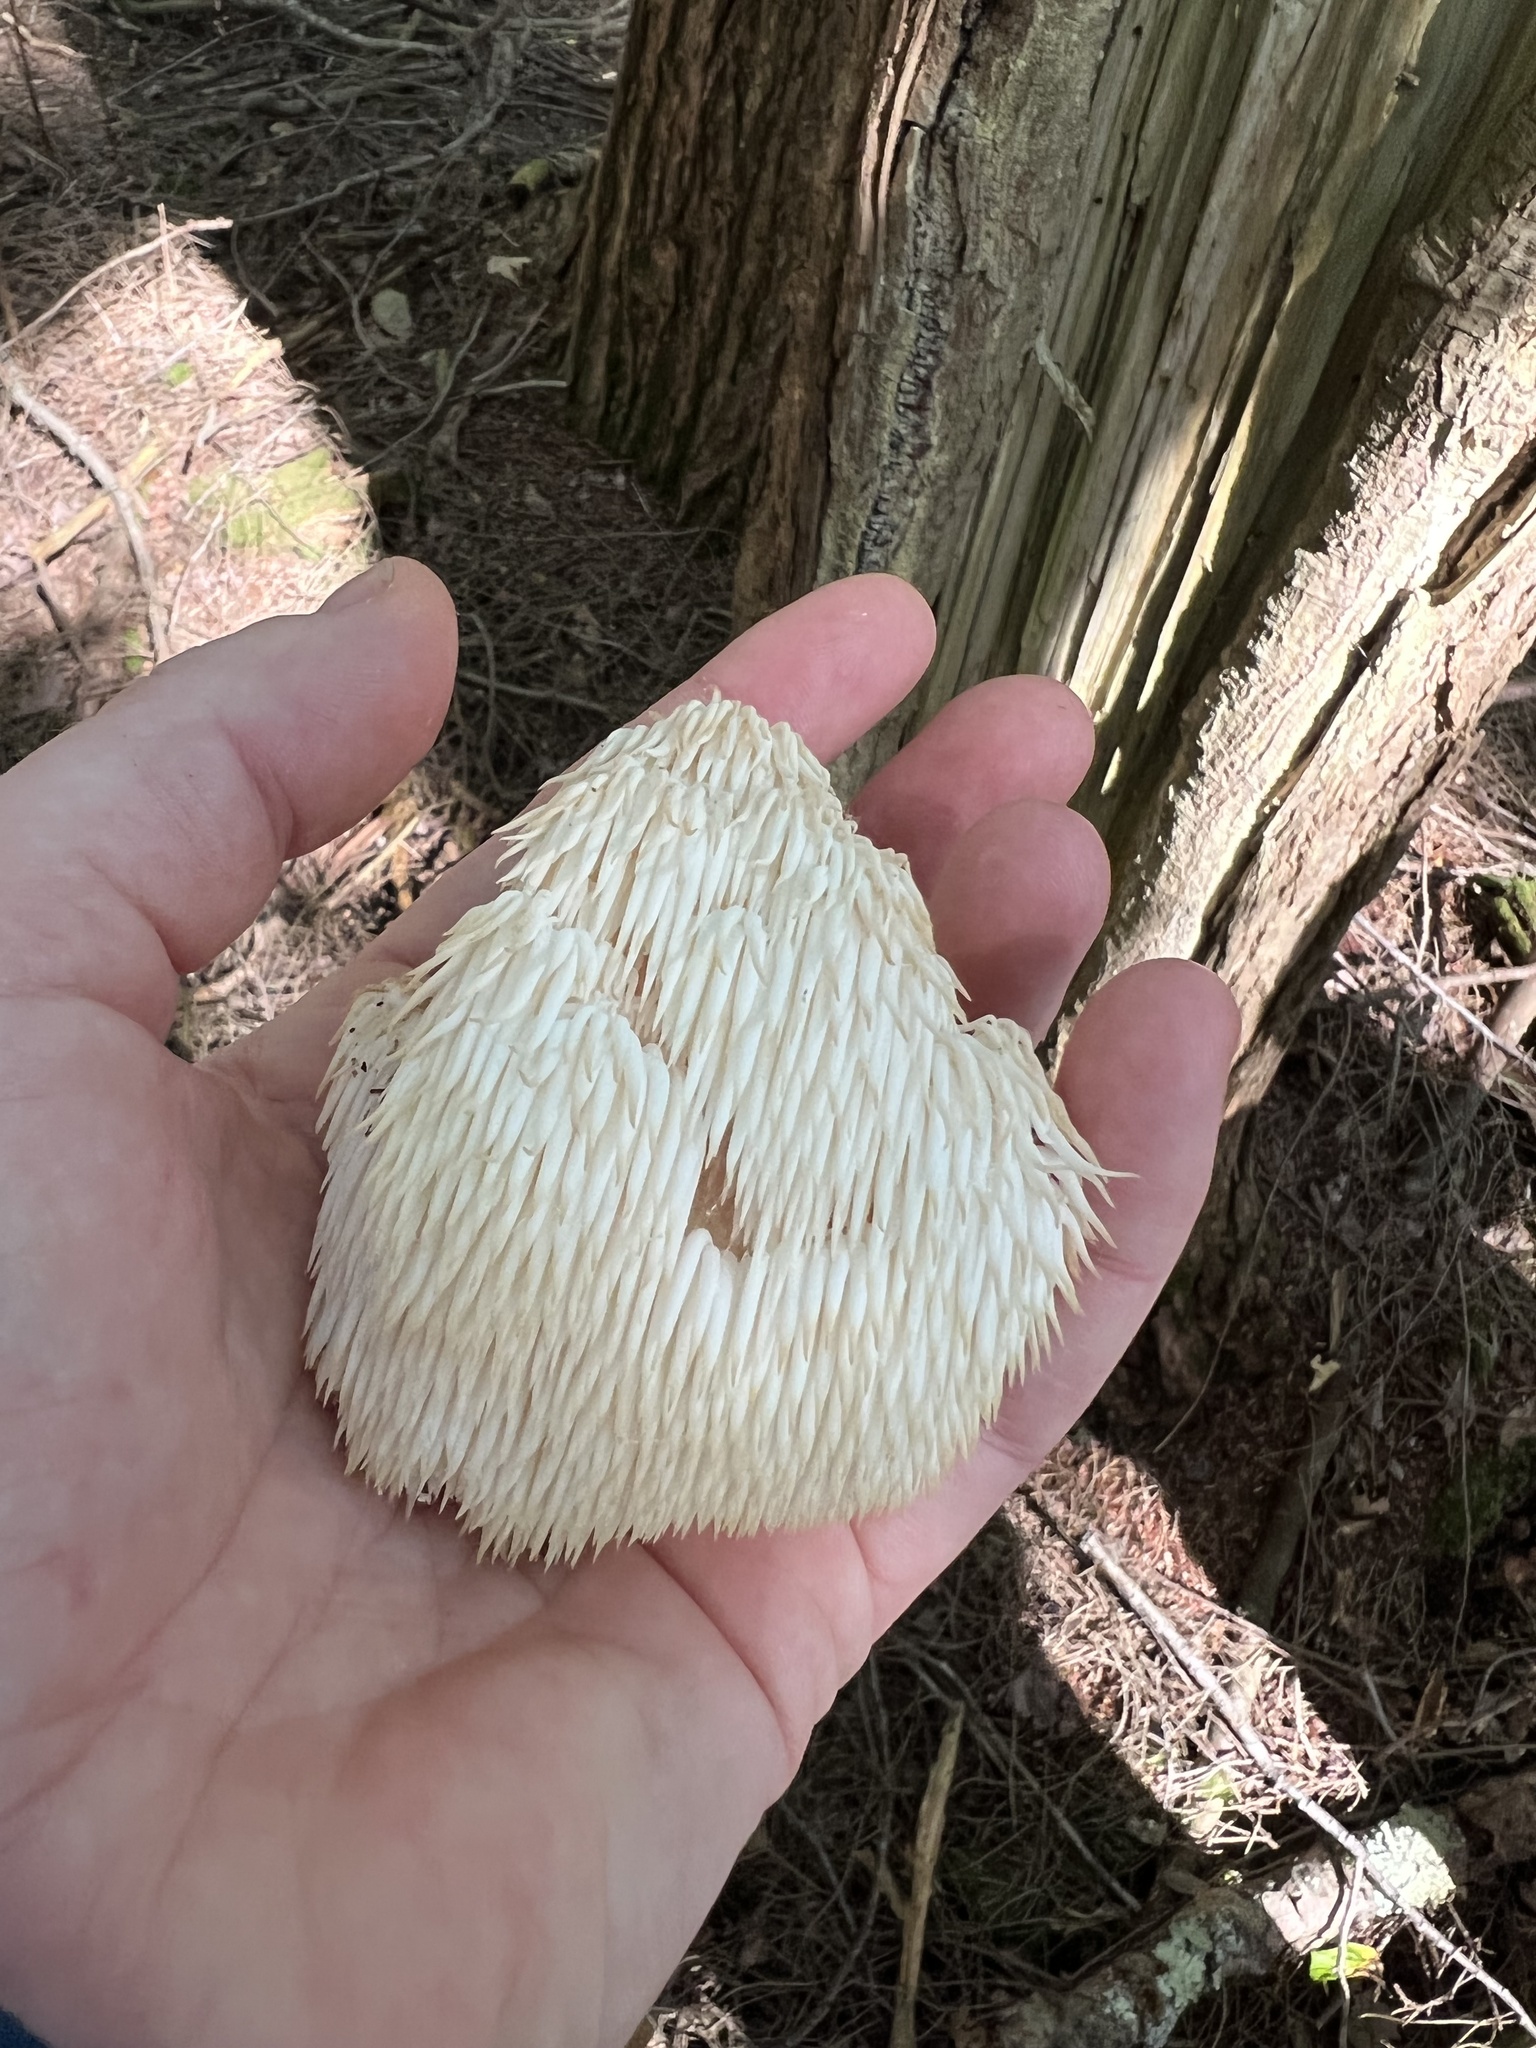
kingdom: Fungi
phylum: Basidiomycota
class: Agaricomycetes
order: Russulales
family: Hericiaceae
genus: Hericium
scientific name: Hericium americanum
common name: Bear's head tooth
